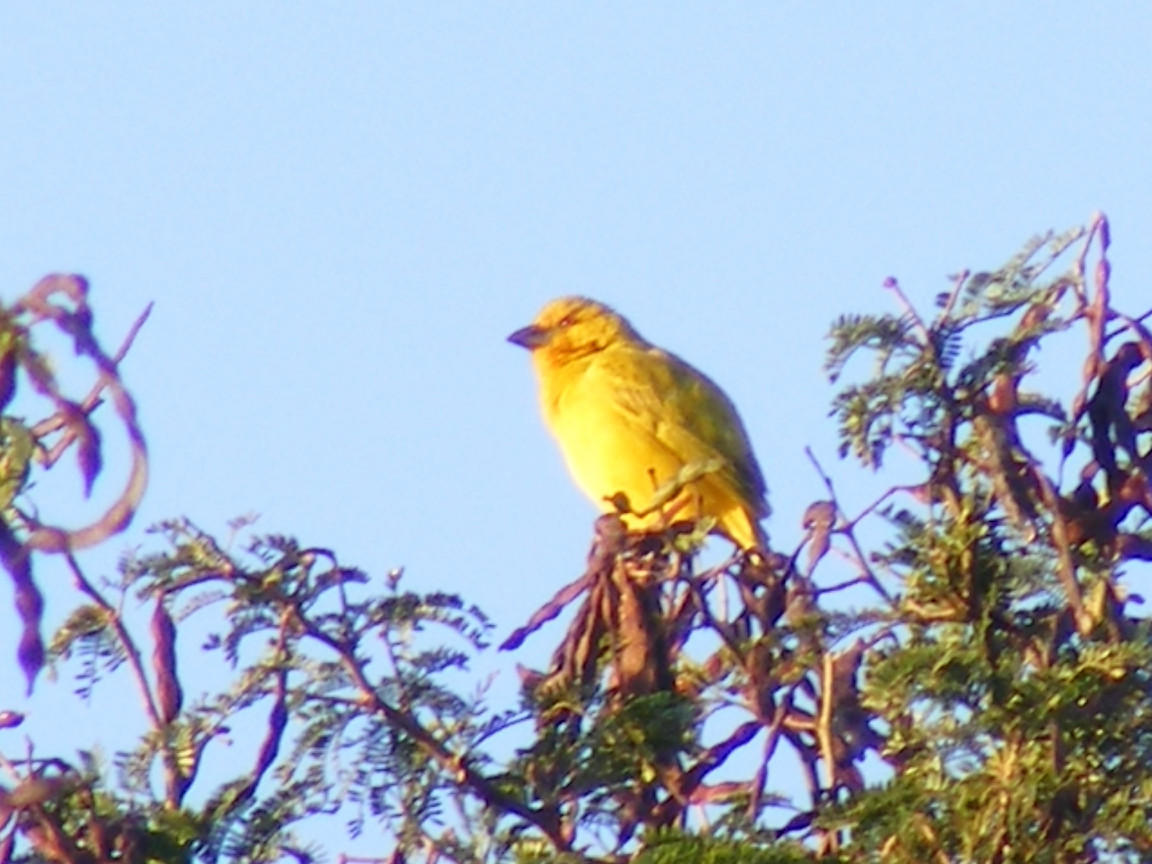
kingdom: Animalia
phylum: Chordata
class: Aves
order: Passeriformes
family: Ploceidae
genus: Ploceus
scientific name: Ploceus subaureus
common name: Yellow weaver
